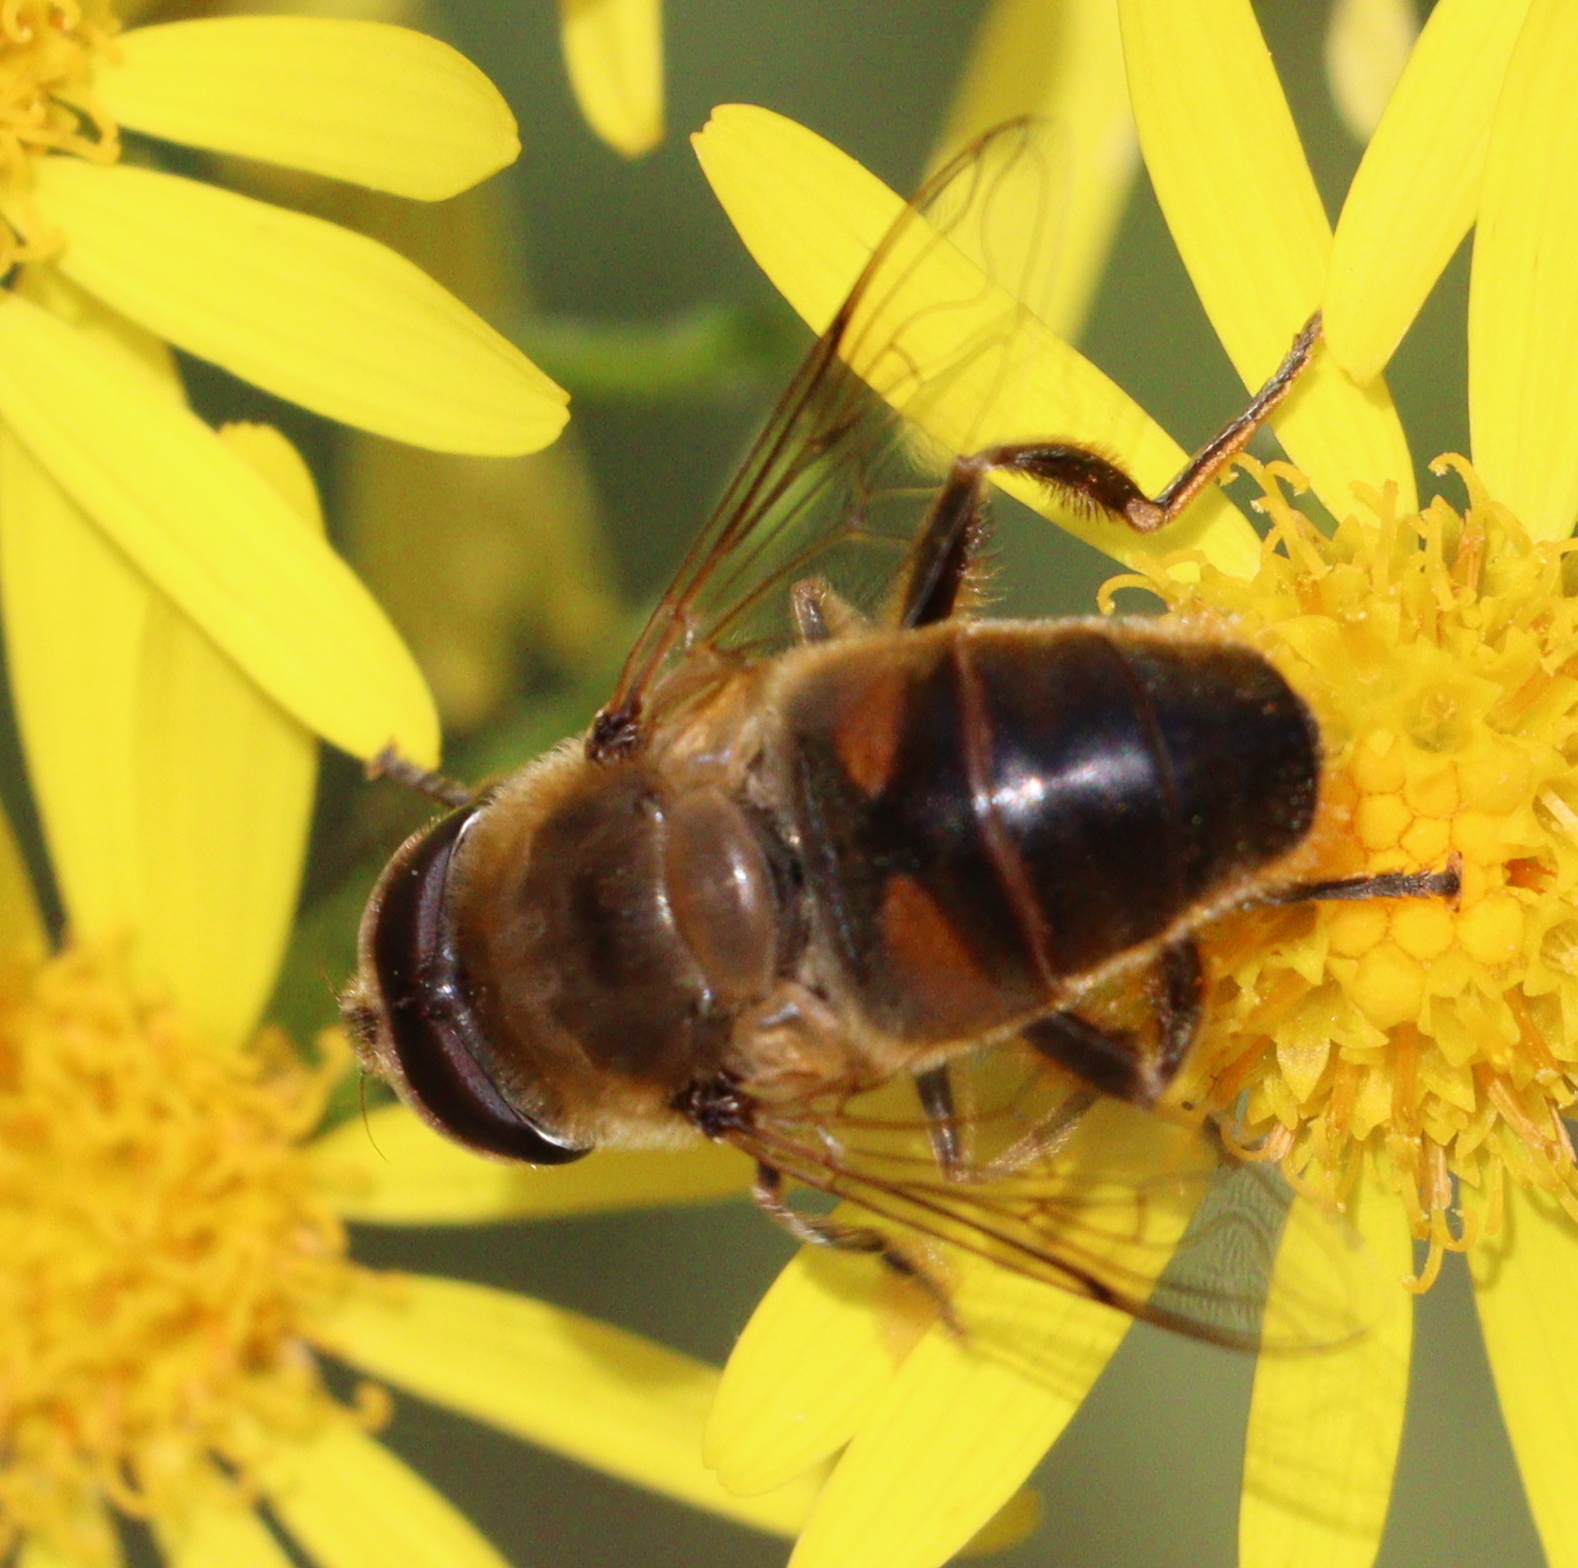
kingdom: Animalia
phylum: Arthropoda
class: Insecta
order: Diptera
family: Syrphidae
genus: Eristalis
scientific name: Eristalis tenax
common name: Drone fly
